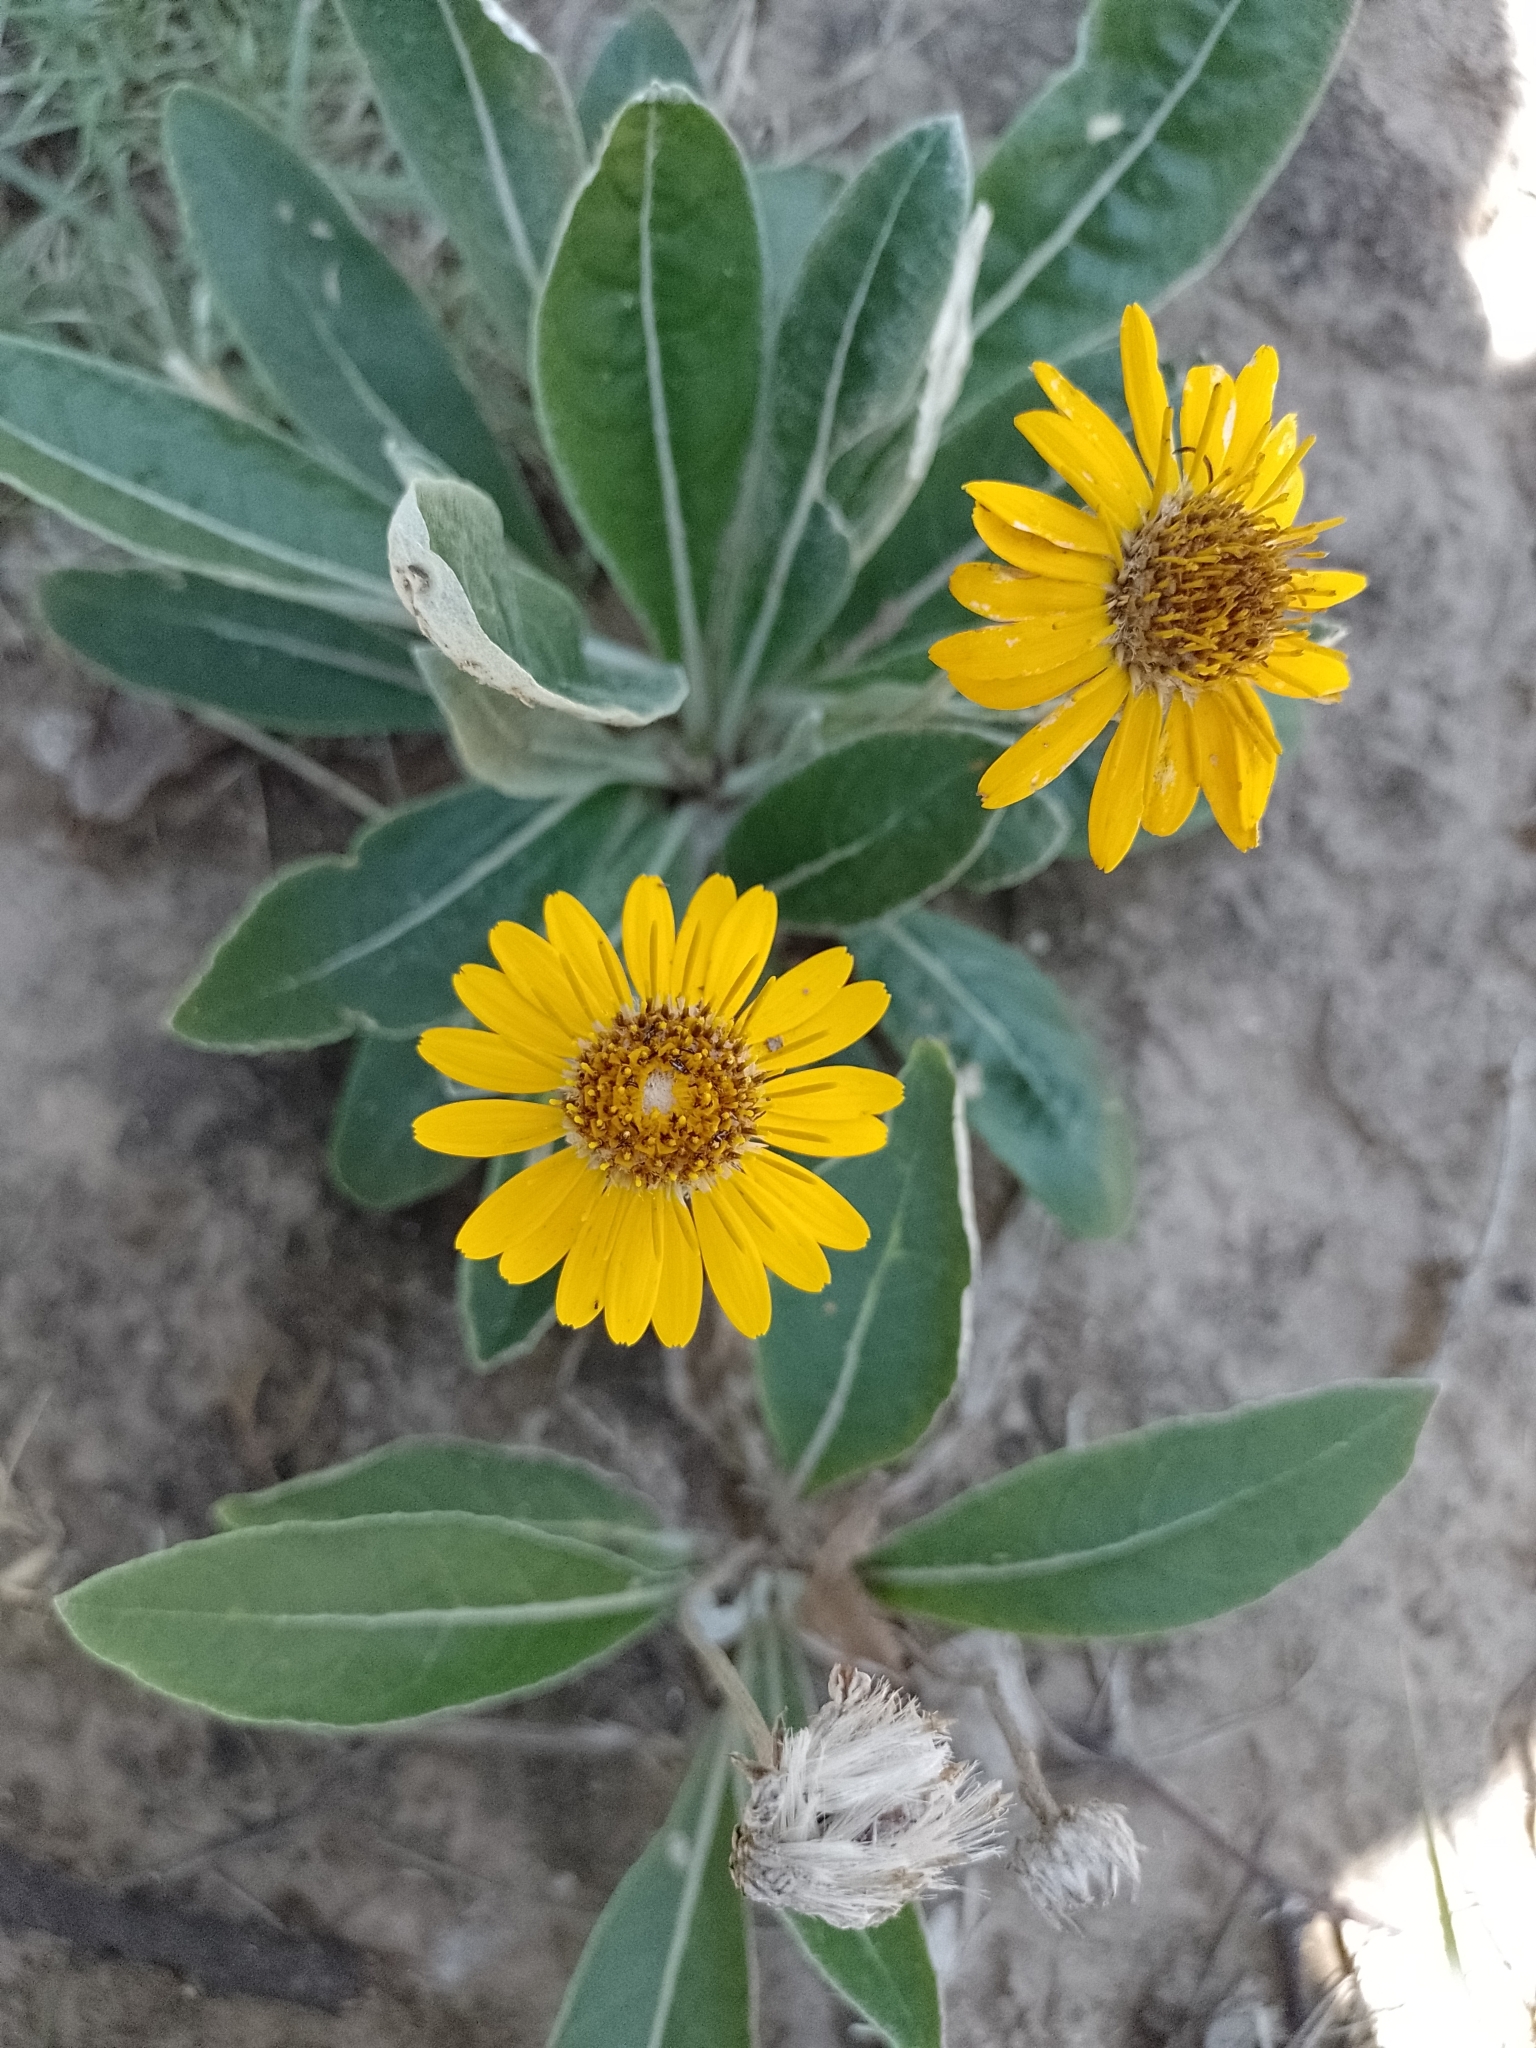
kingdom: Plantae
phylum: Tracheophyta
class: Magnoliopsida
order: Asterales
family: Asteraceae
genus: Trichocline
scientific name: Trichocline reptans
